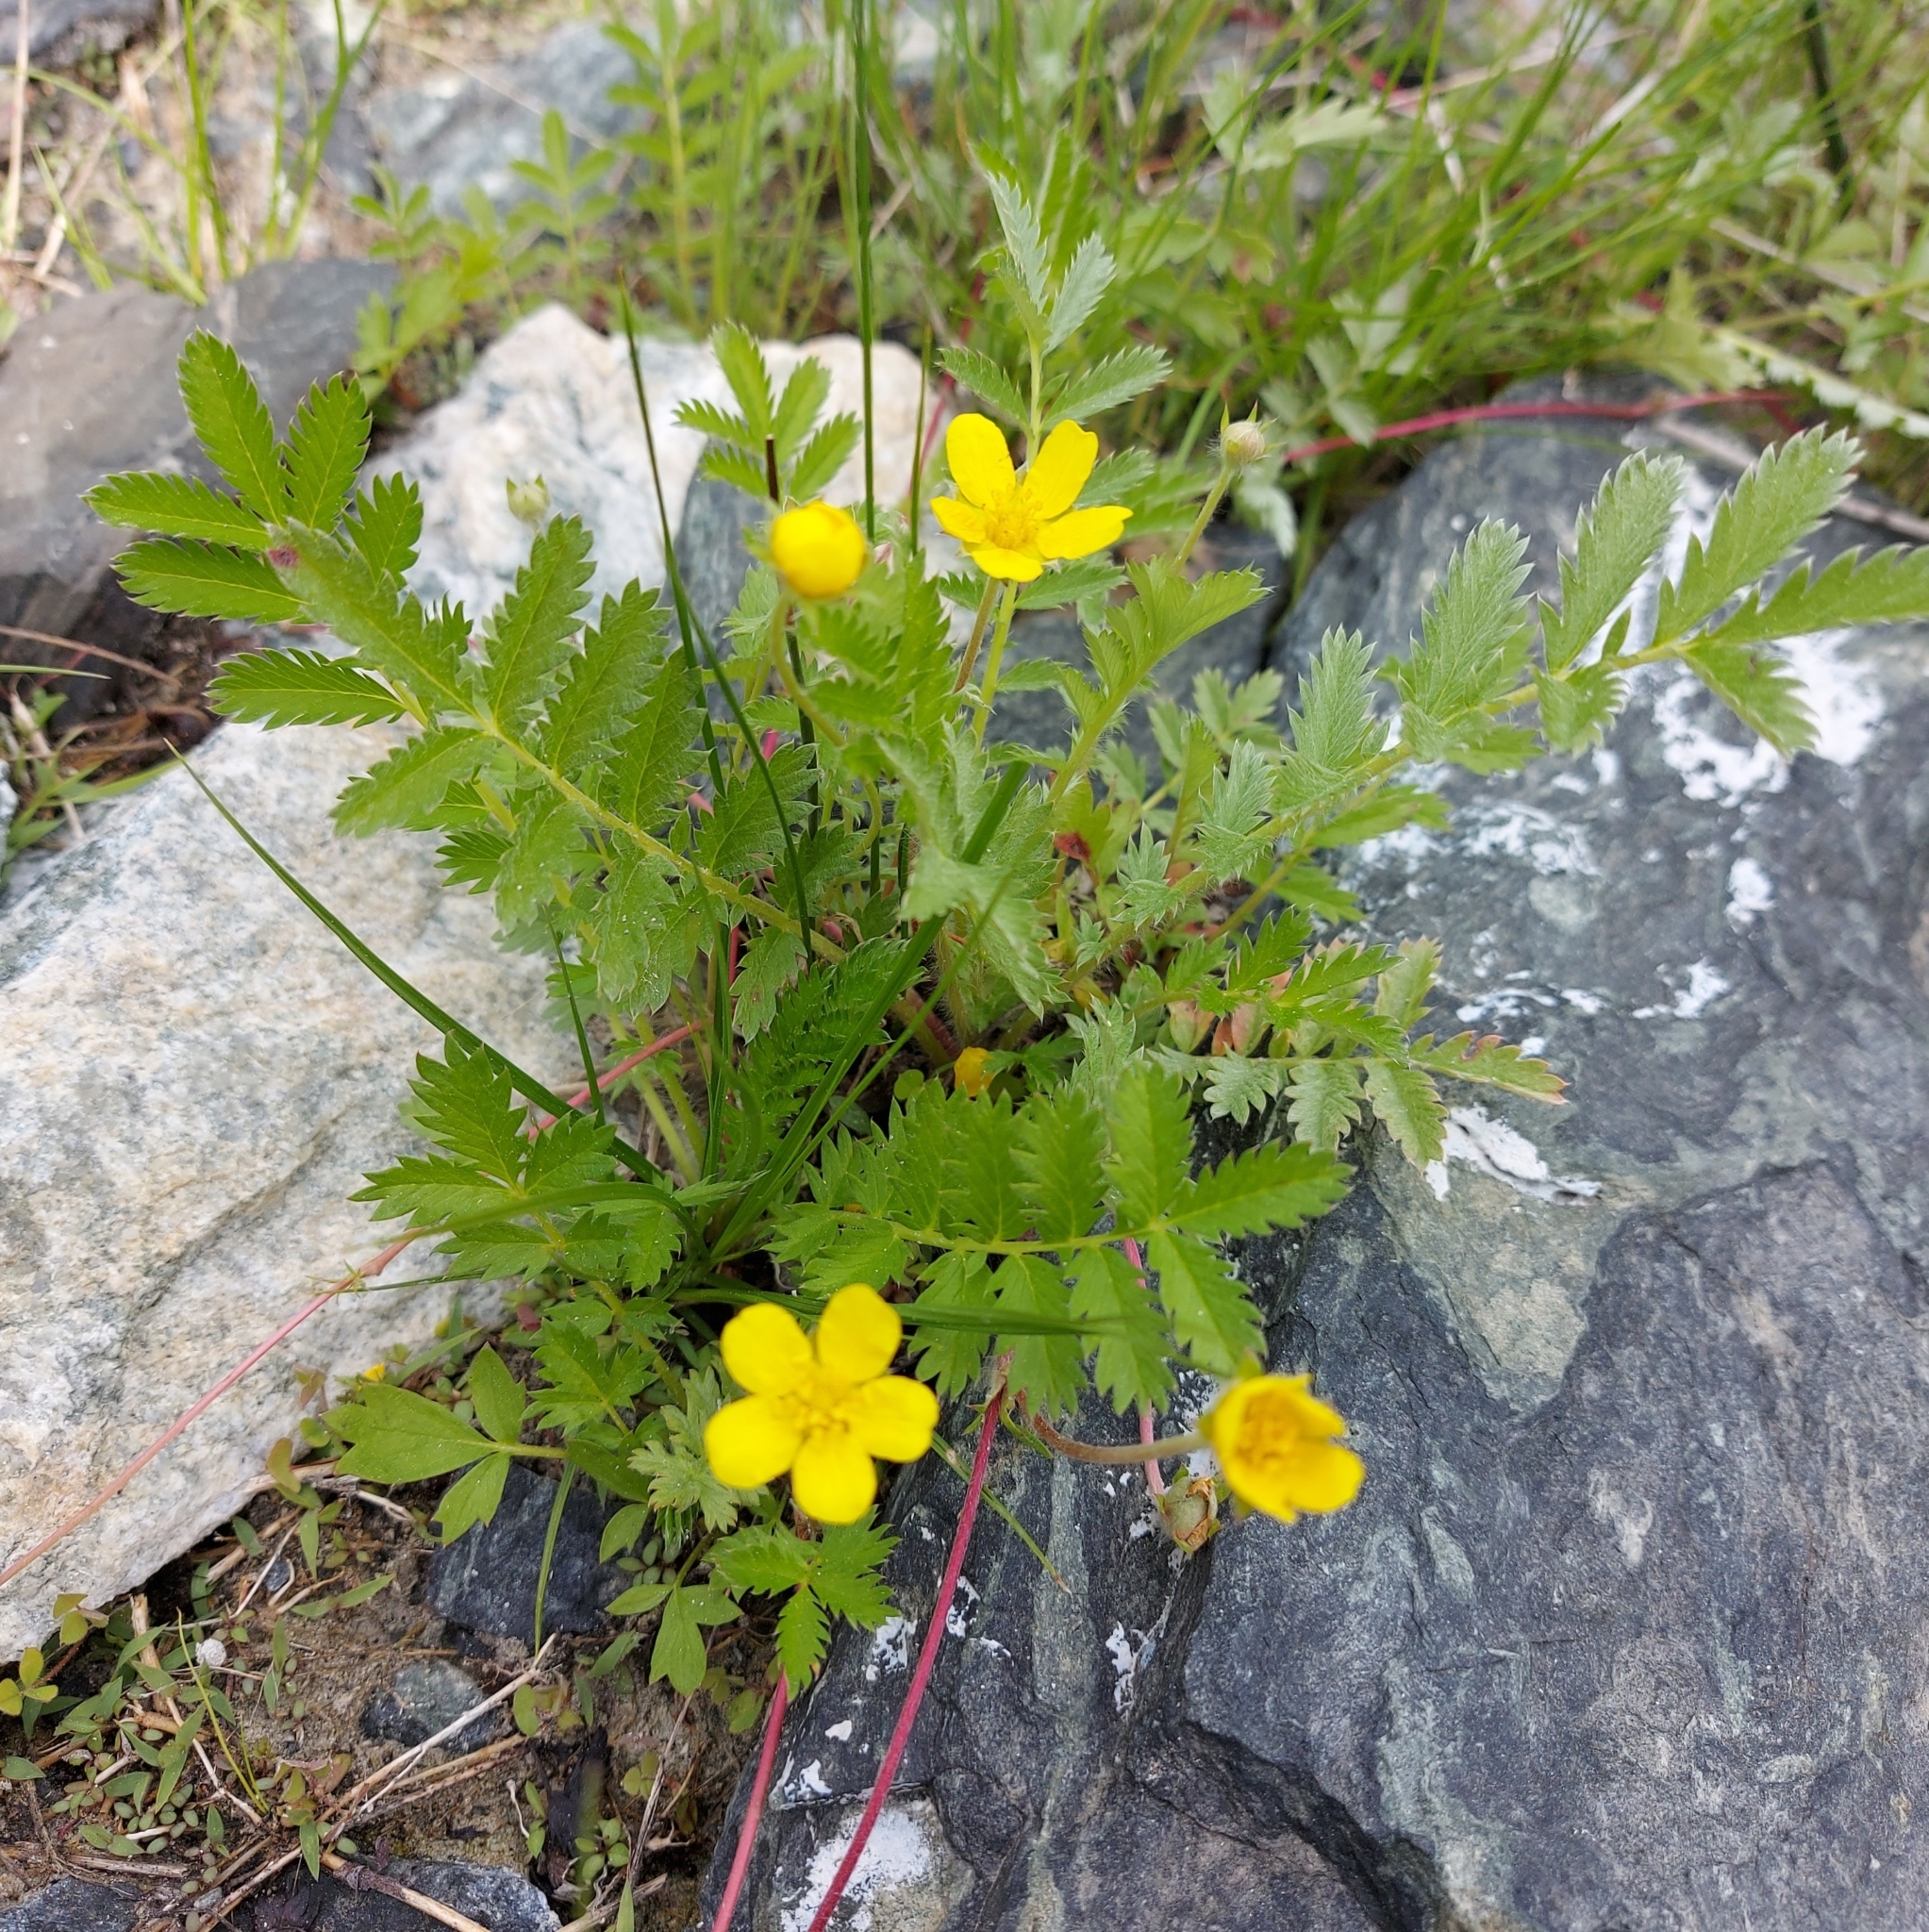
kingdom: Plantae
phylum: Tracheophyta
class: Magnoliopsida
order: Rosales
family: Rosaceae
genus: Argentina
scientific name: Argentina anserina
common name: Common silverweed
